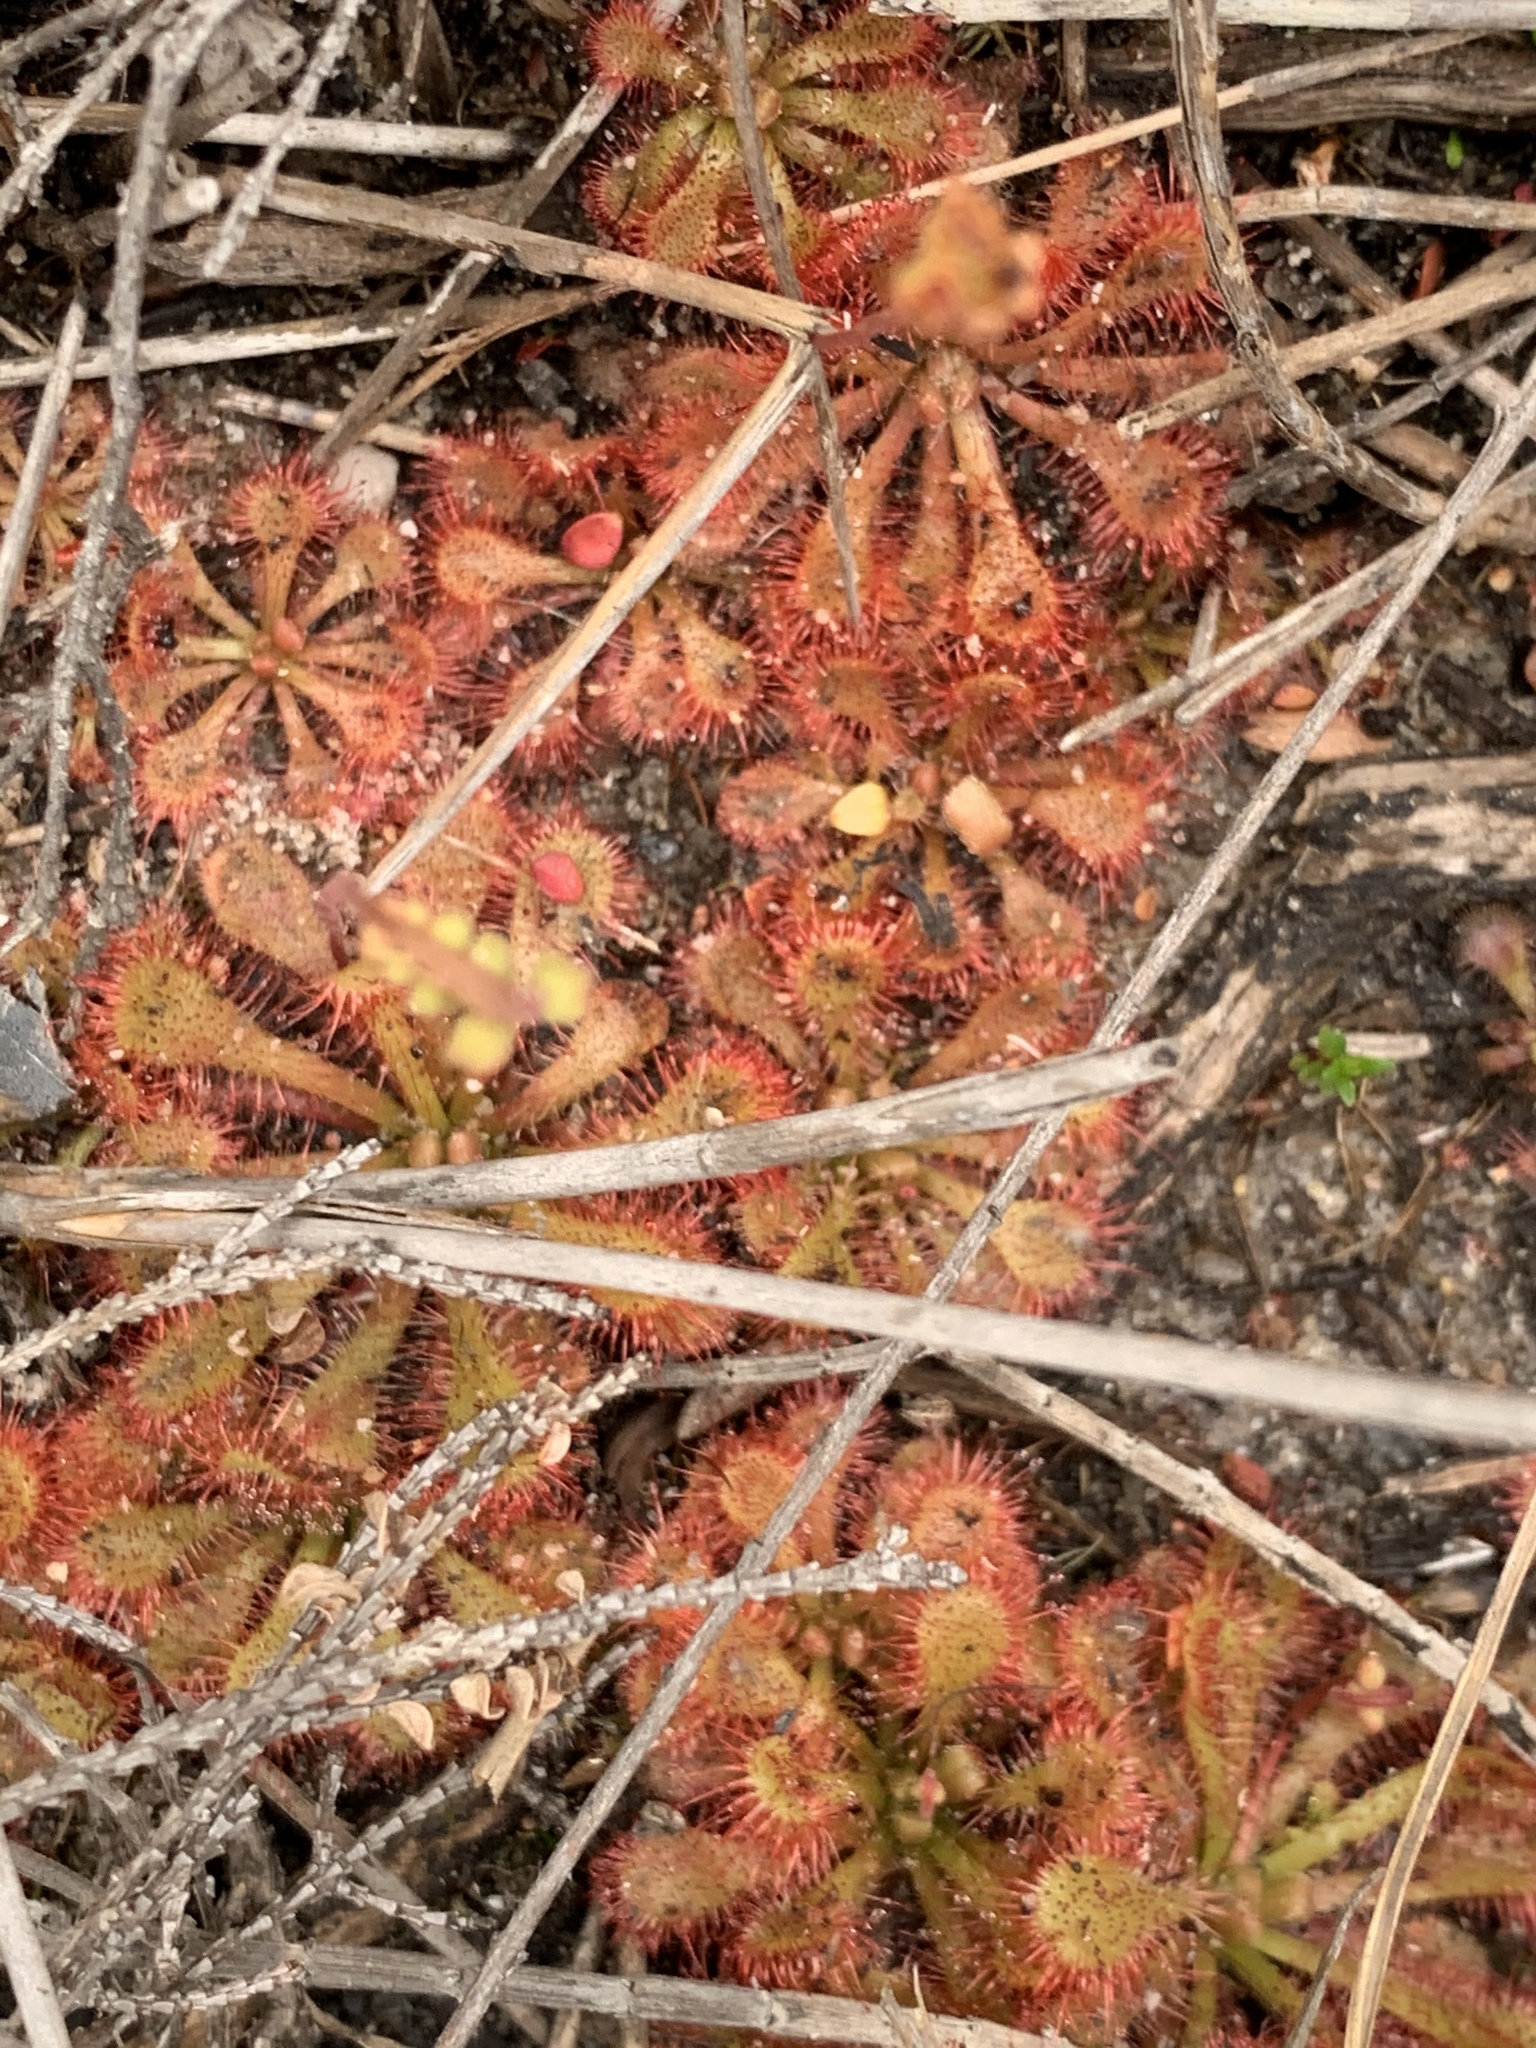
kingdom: Plantae
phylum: Tracheophyta
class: Magnoliopsida
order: Caryophyllales
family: Droseraceae
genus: Drosera
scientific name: Drosera spatulata
